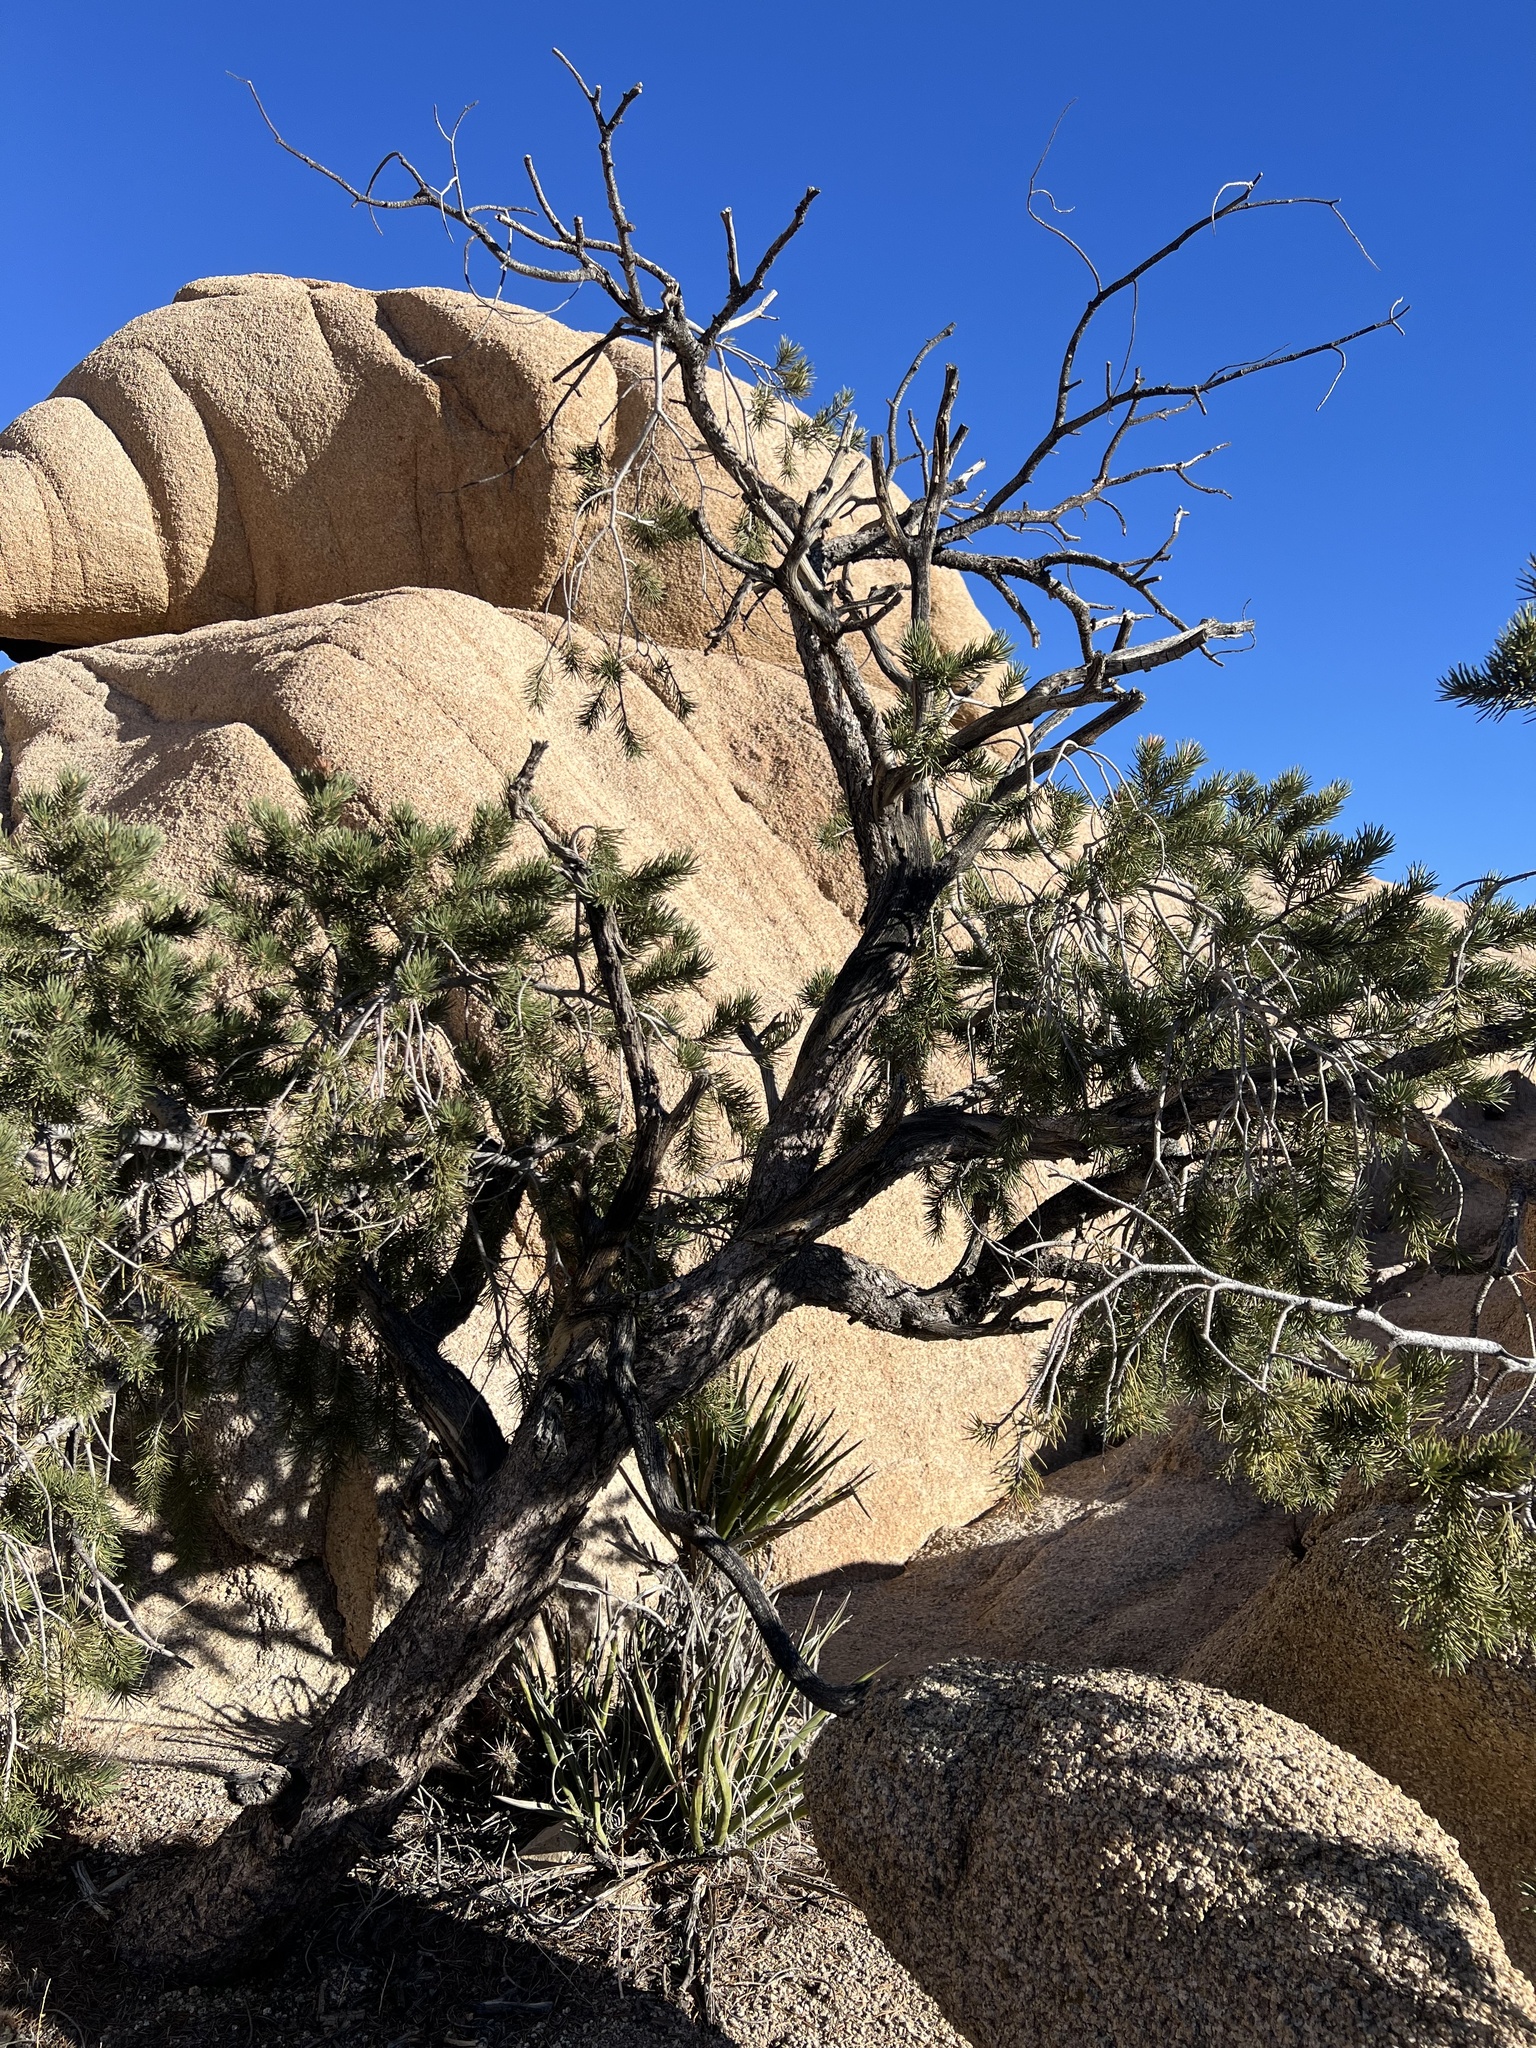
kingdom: Plantae
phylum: Tracheophyta
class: Pinopsida
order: Pinales
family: Pinaceae
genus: Pinus
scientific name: Pinus monophylla
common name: One-leaved nut pine
